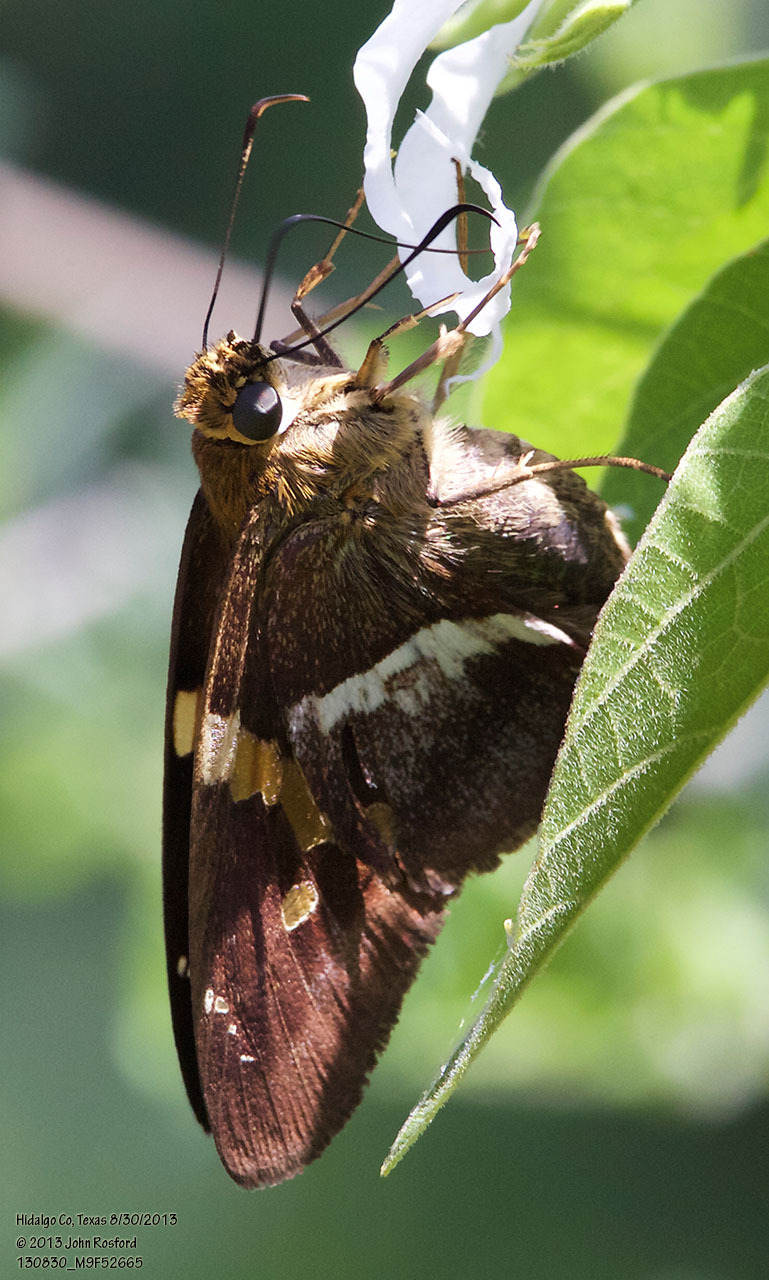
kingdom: Animalia
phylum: Arthropoda
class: Insecta
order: Lepidoptera
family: Hesperiidae
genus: Aguna
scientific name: Aguna asander
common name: Gold-spotted aguna
